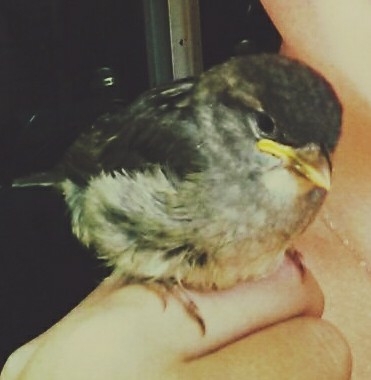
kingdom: Animalia
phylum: Chordata
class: Aves
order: Passeriformes
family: Passeridae
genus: Passer
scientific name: Passer domesticus
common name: House sparrow
